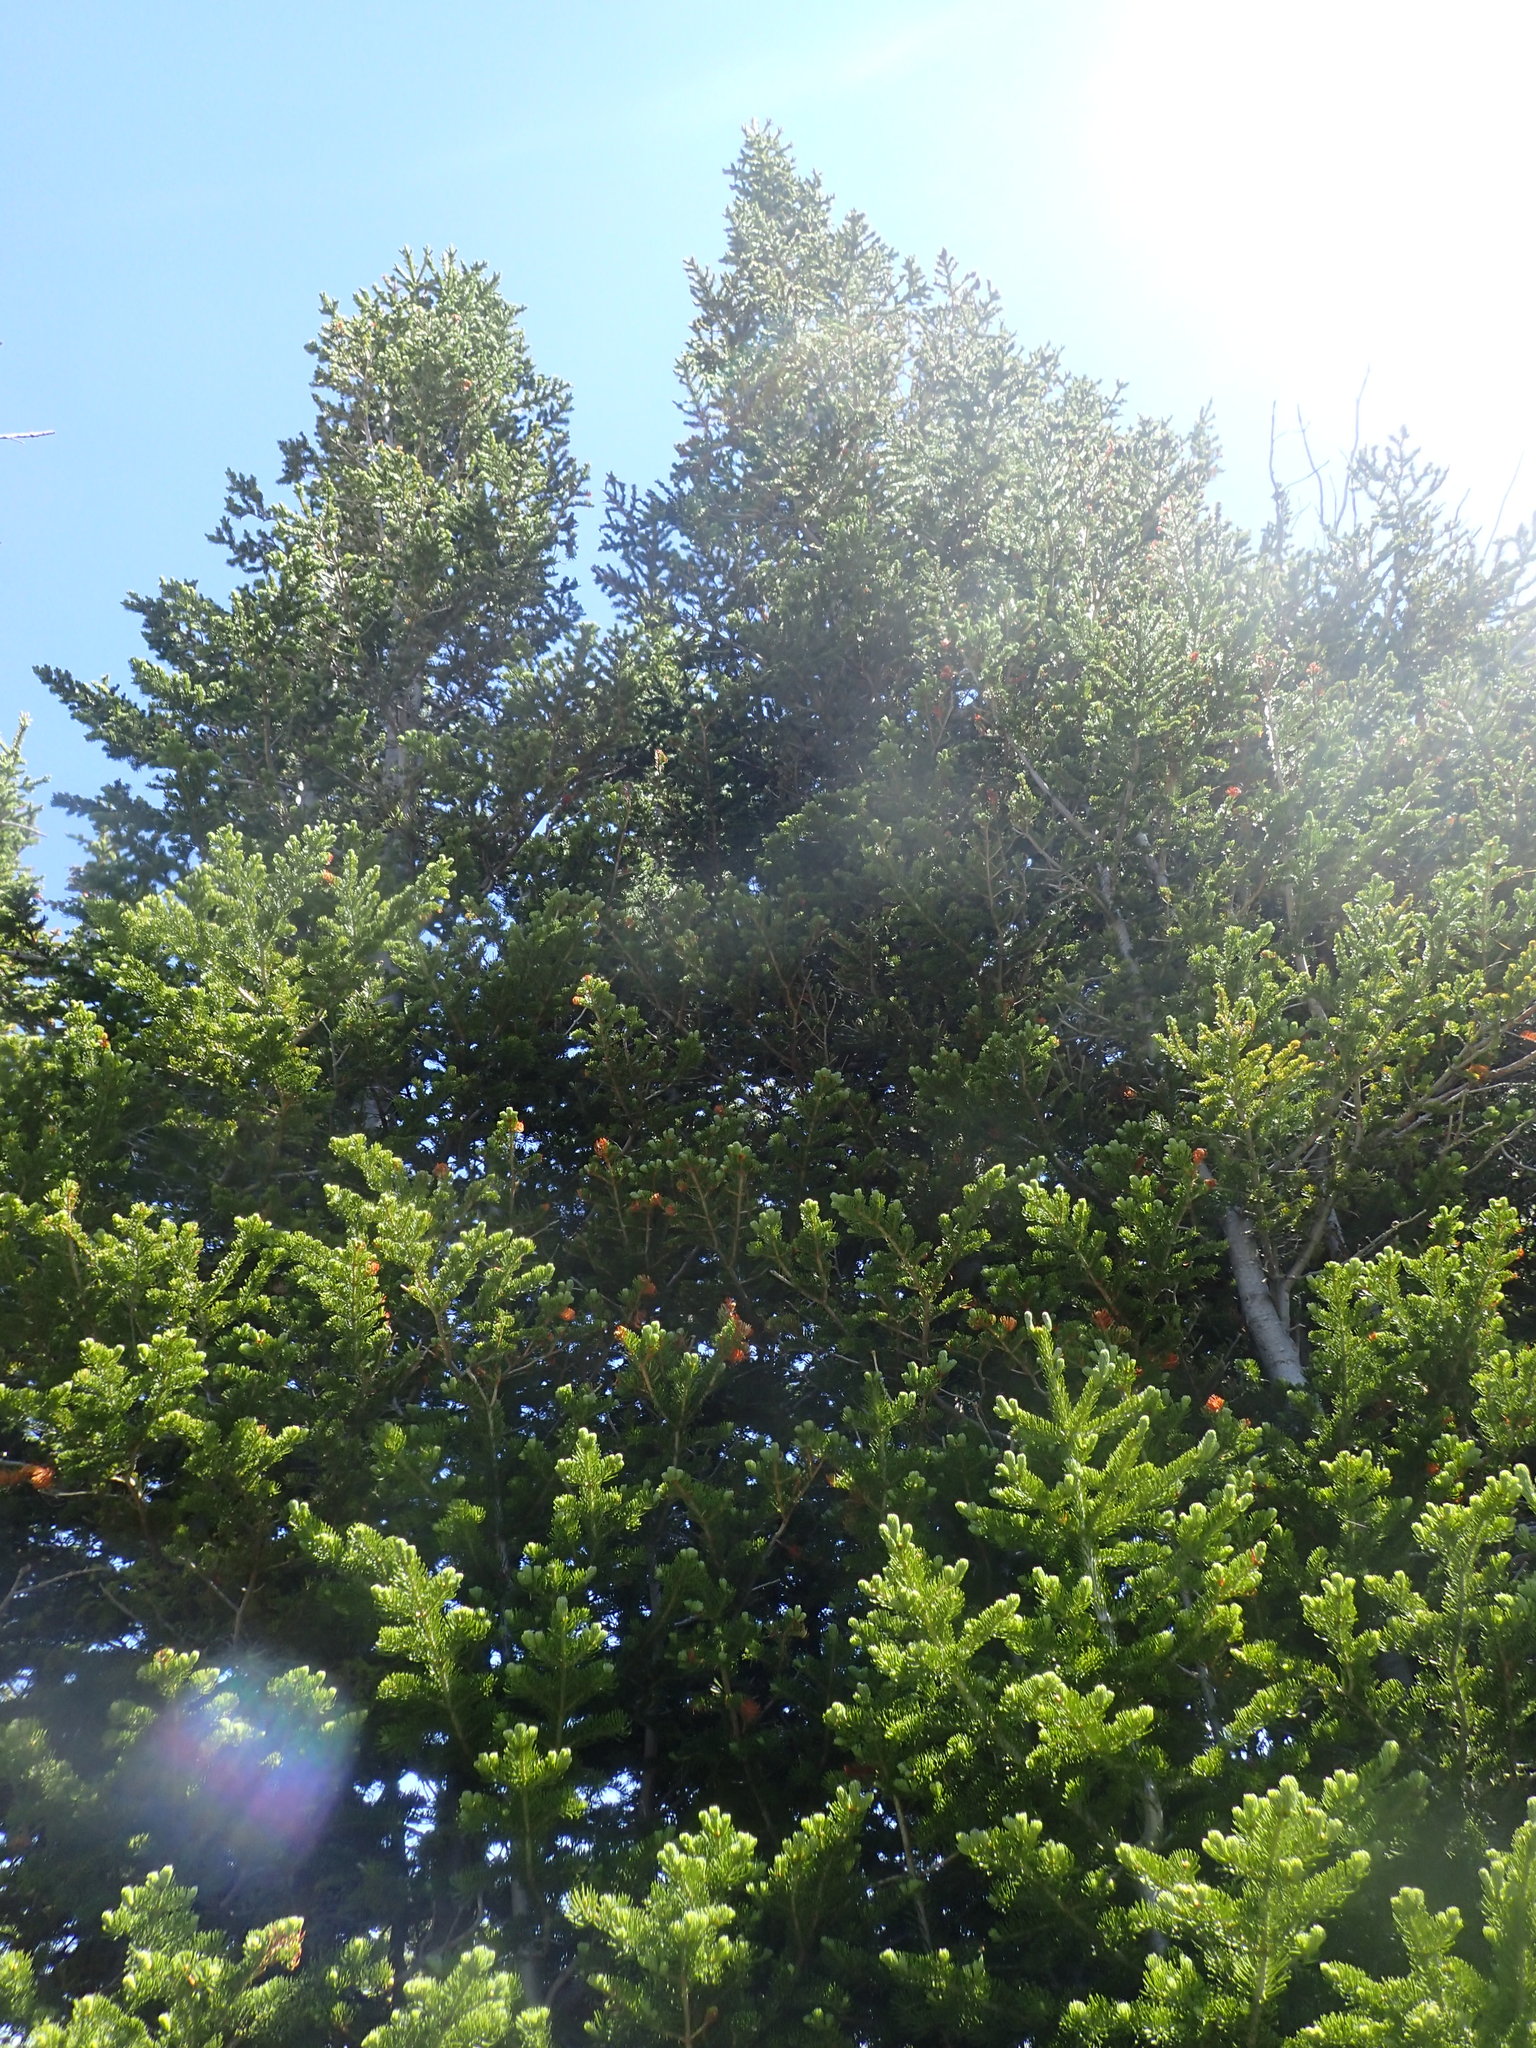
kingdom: Plantae
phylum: Tracheophyta
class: Pinopsida
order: Pinales
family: Pinaceae
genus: Abies
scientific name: Abies lasiocarpa
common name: Subalpine fir
